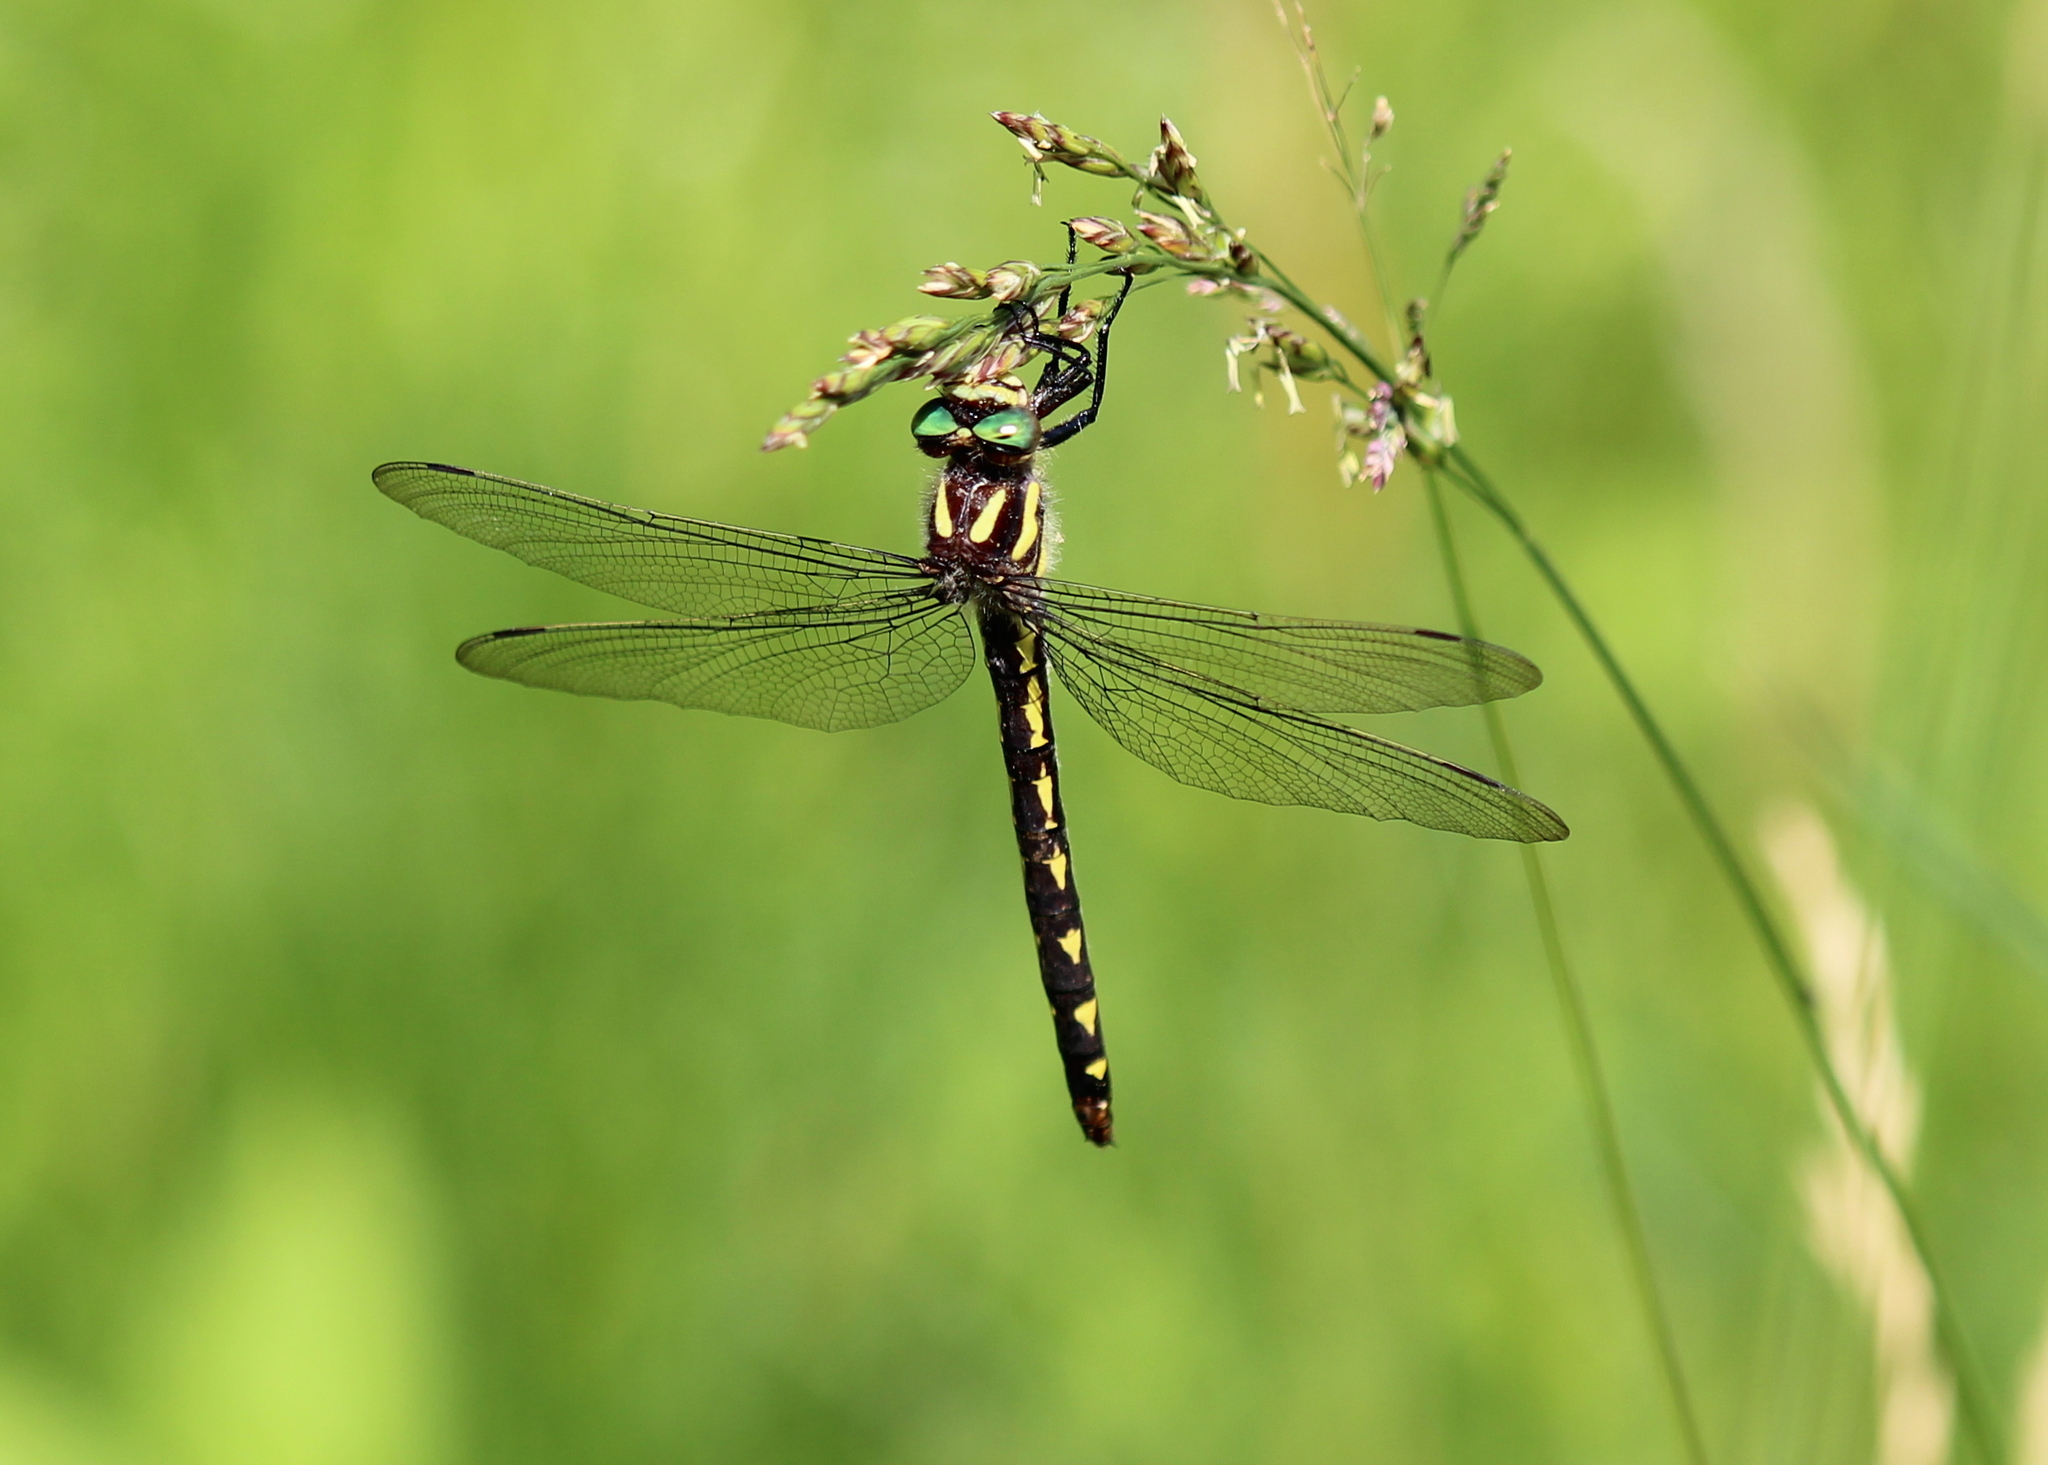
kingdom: Animalia
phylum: Arthropoda
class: Insecta
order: Odonata
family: Cordulegastridae
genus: Cordulegaster
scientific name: Cordulegaster diastatops
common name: Delta-spotted spiketail
